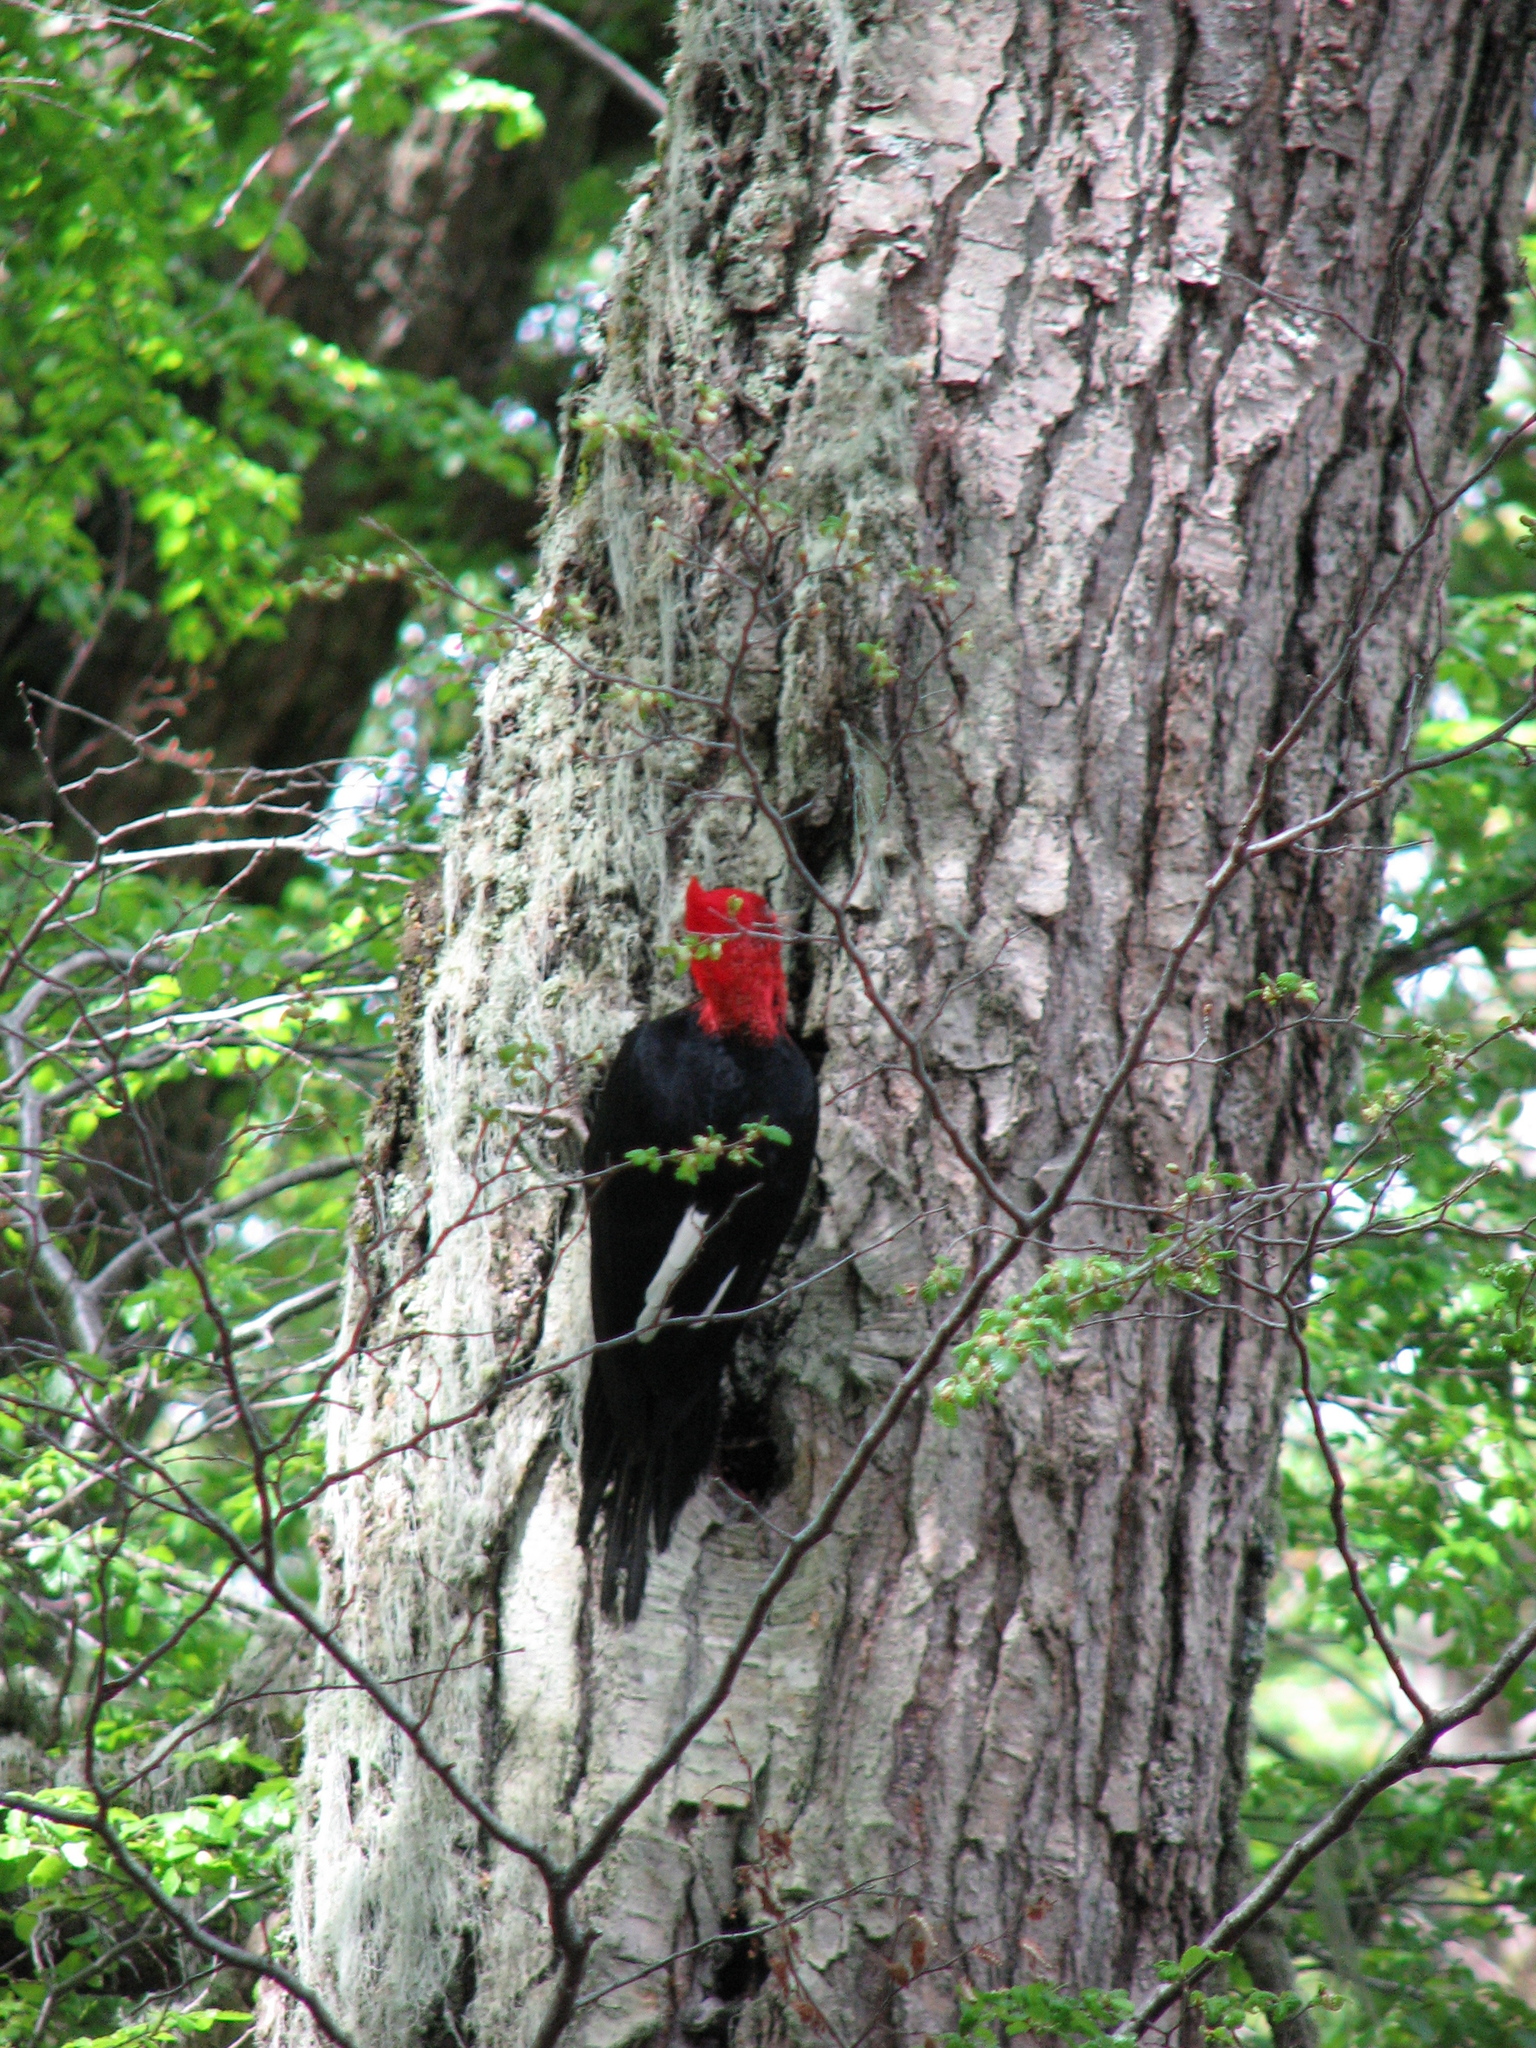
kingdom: Animalia
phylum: Chordata
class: Aves
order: Piciformes
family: Picidae
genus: Campephilus
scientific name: Campephilus magellanicus
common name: Magellanic woodpecker
